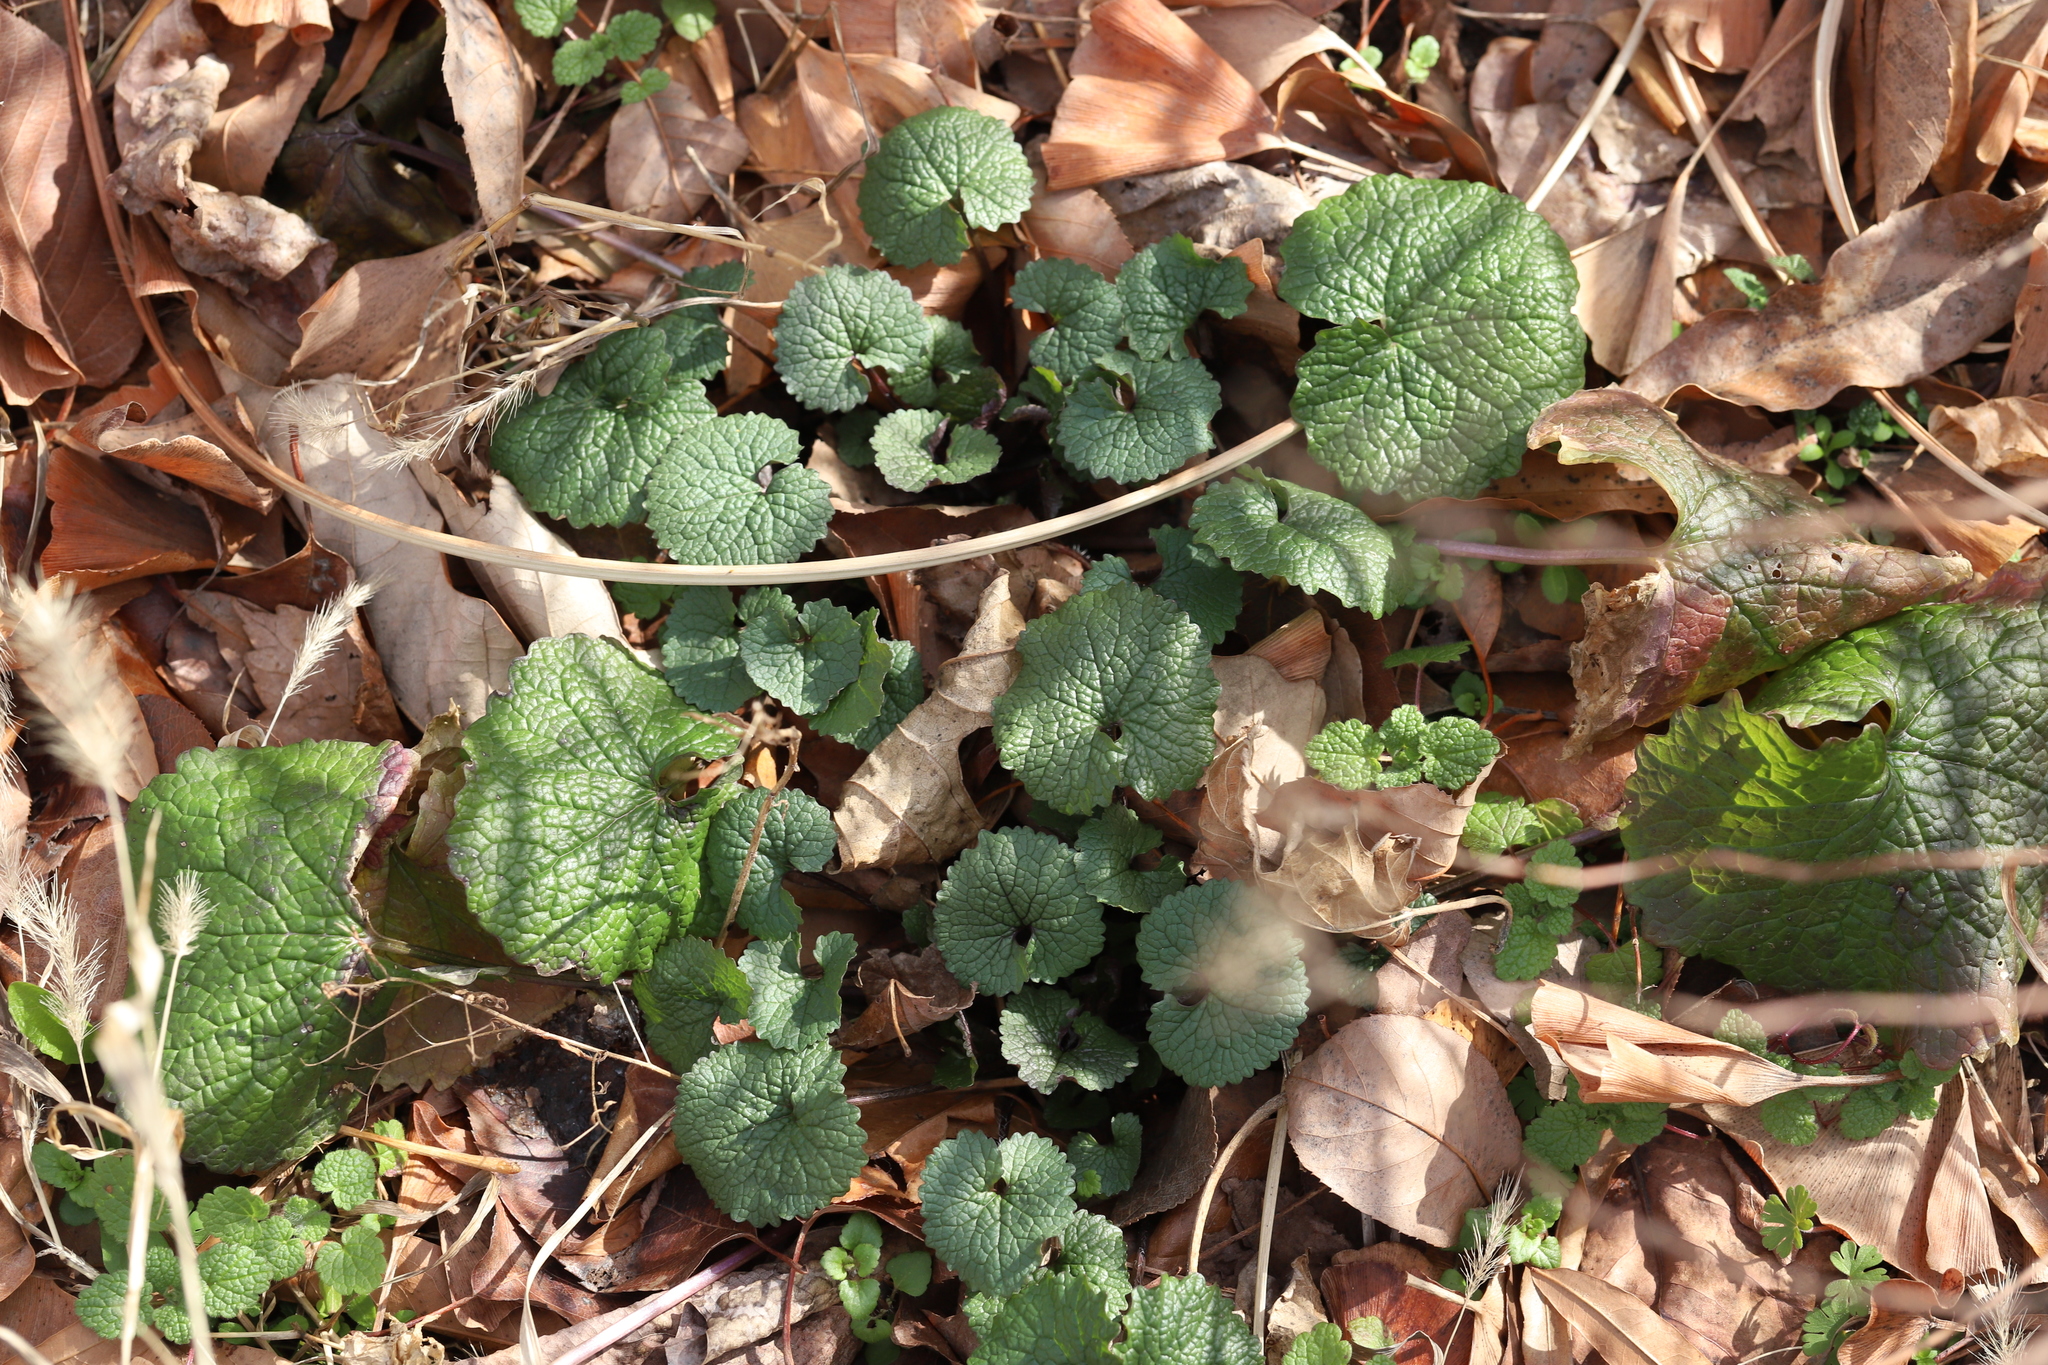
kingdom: Plantae
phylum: Tracheophyta
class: Magnoliopsida
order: Brassicales
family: Brassicaceae
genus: Alliaria
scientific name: Alliaria petiolata
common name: Garlic mustard
